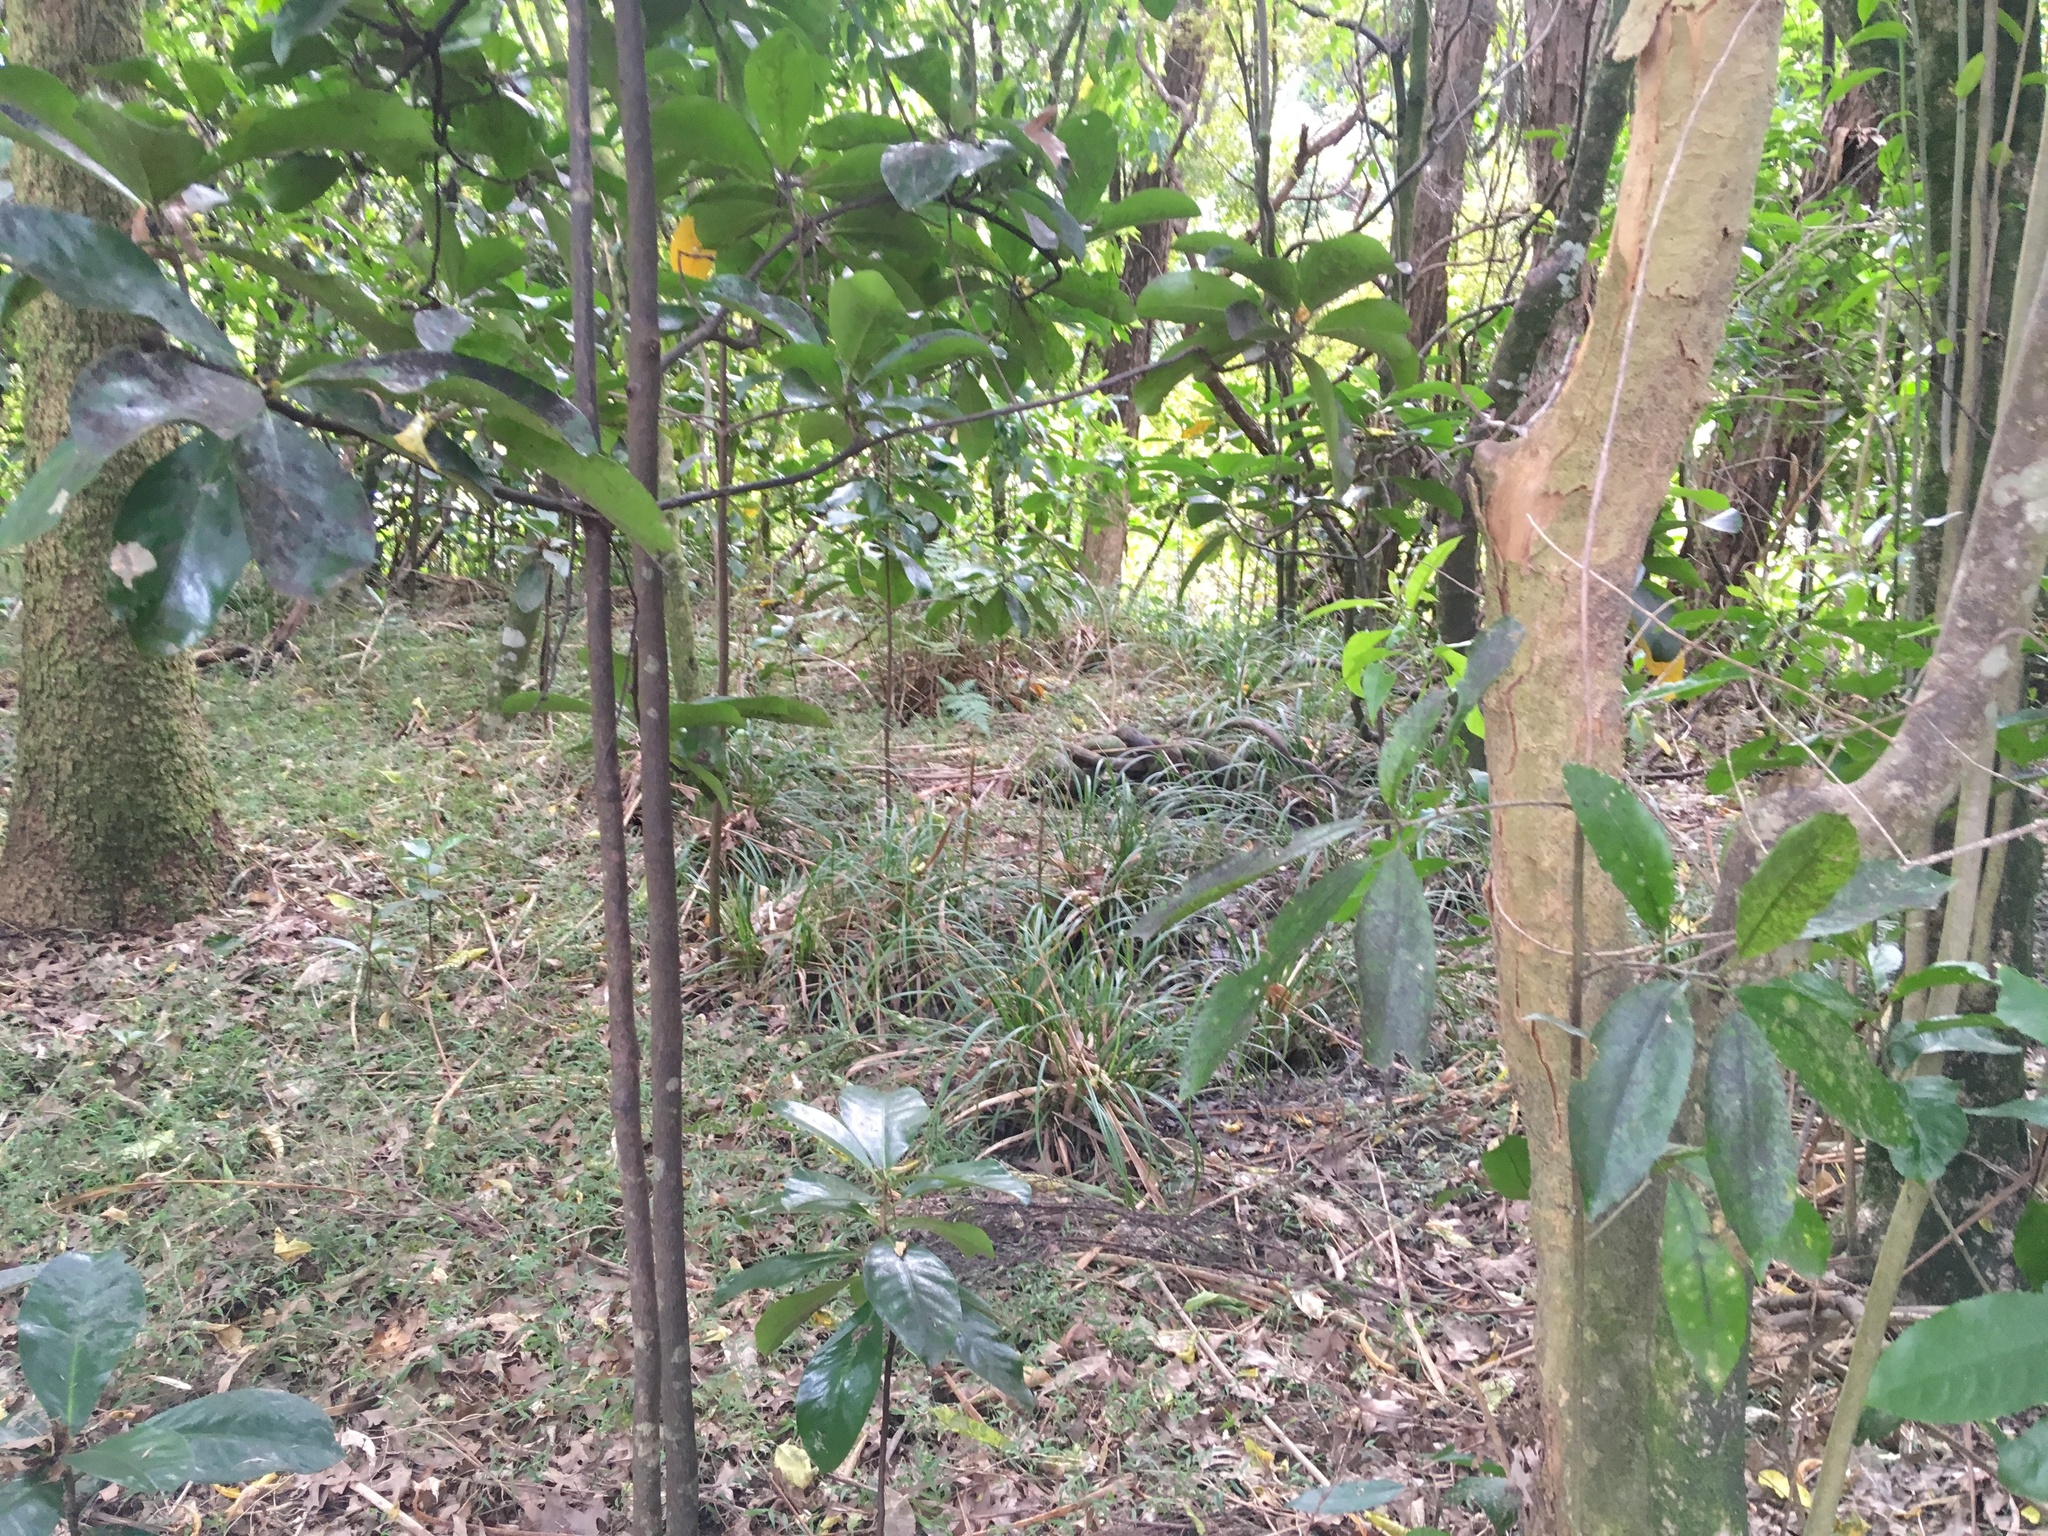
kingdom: Plantae
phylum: Tracheophyta
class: Magnoliopsida
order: Cucurbitales
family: Corynocarpaceae
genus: Corynocarpus
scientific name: Corynocarpus laevigatus
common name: New zealand laurel
